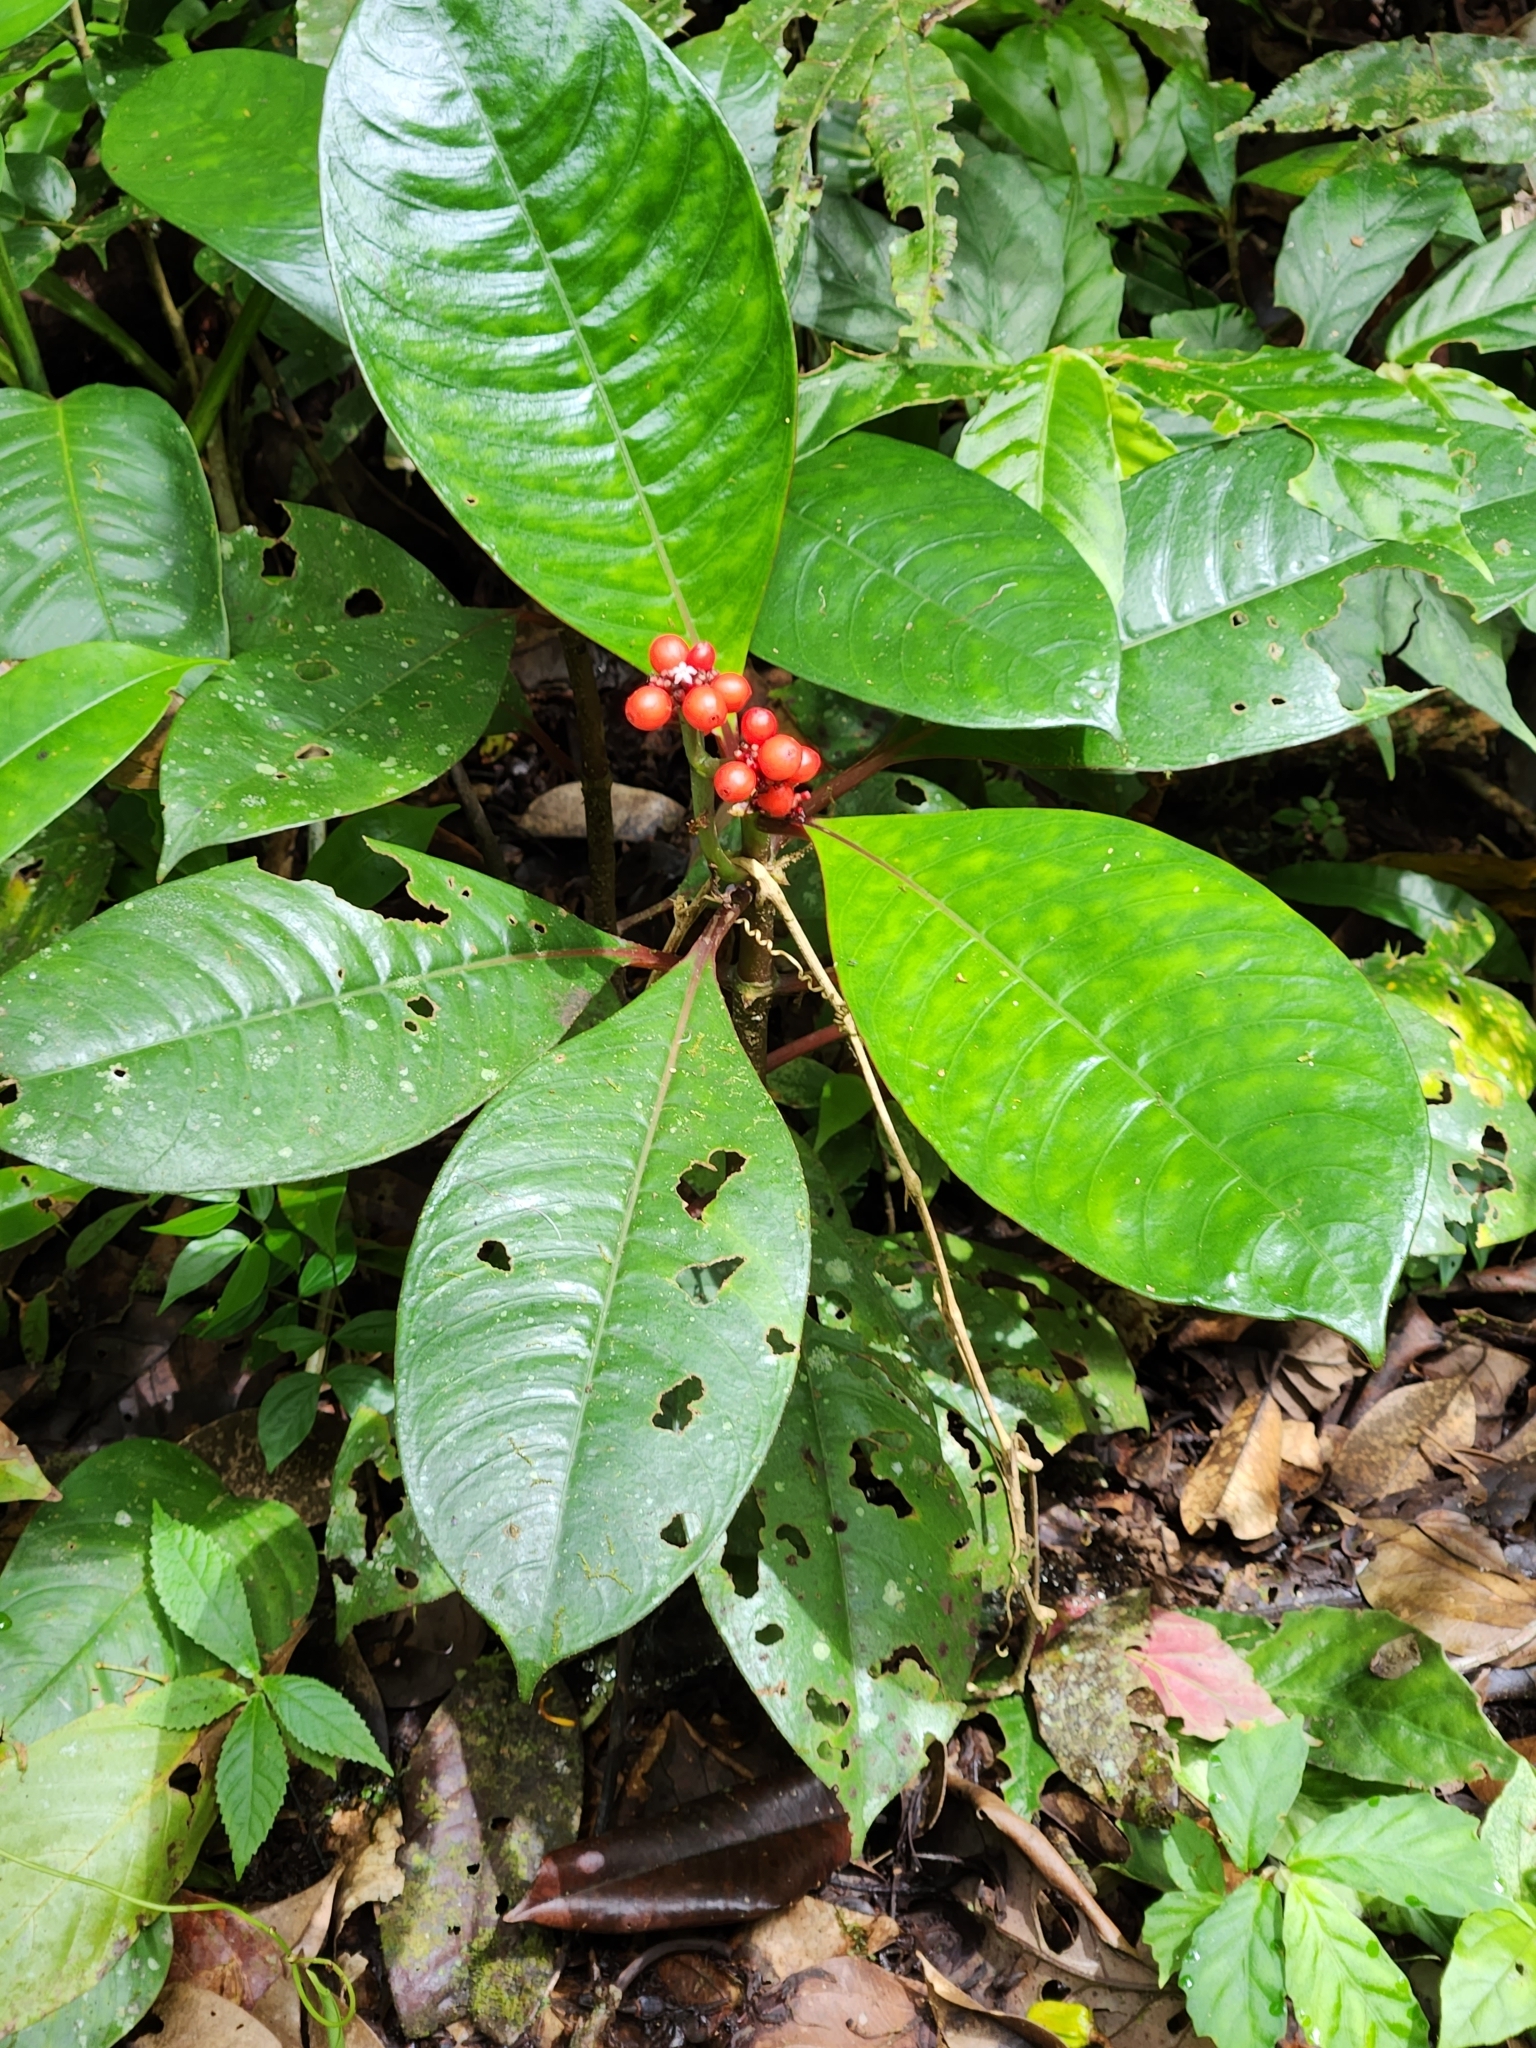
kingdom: Plantae
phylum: Tracheophyta
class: Magnoliopsida
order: Gentianales
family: Rubiaceae
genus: Notopleura
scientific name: Notopleura uliginosa
